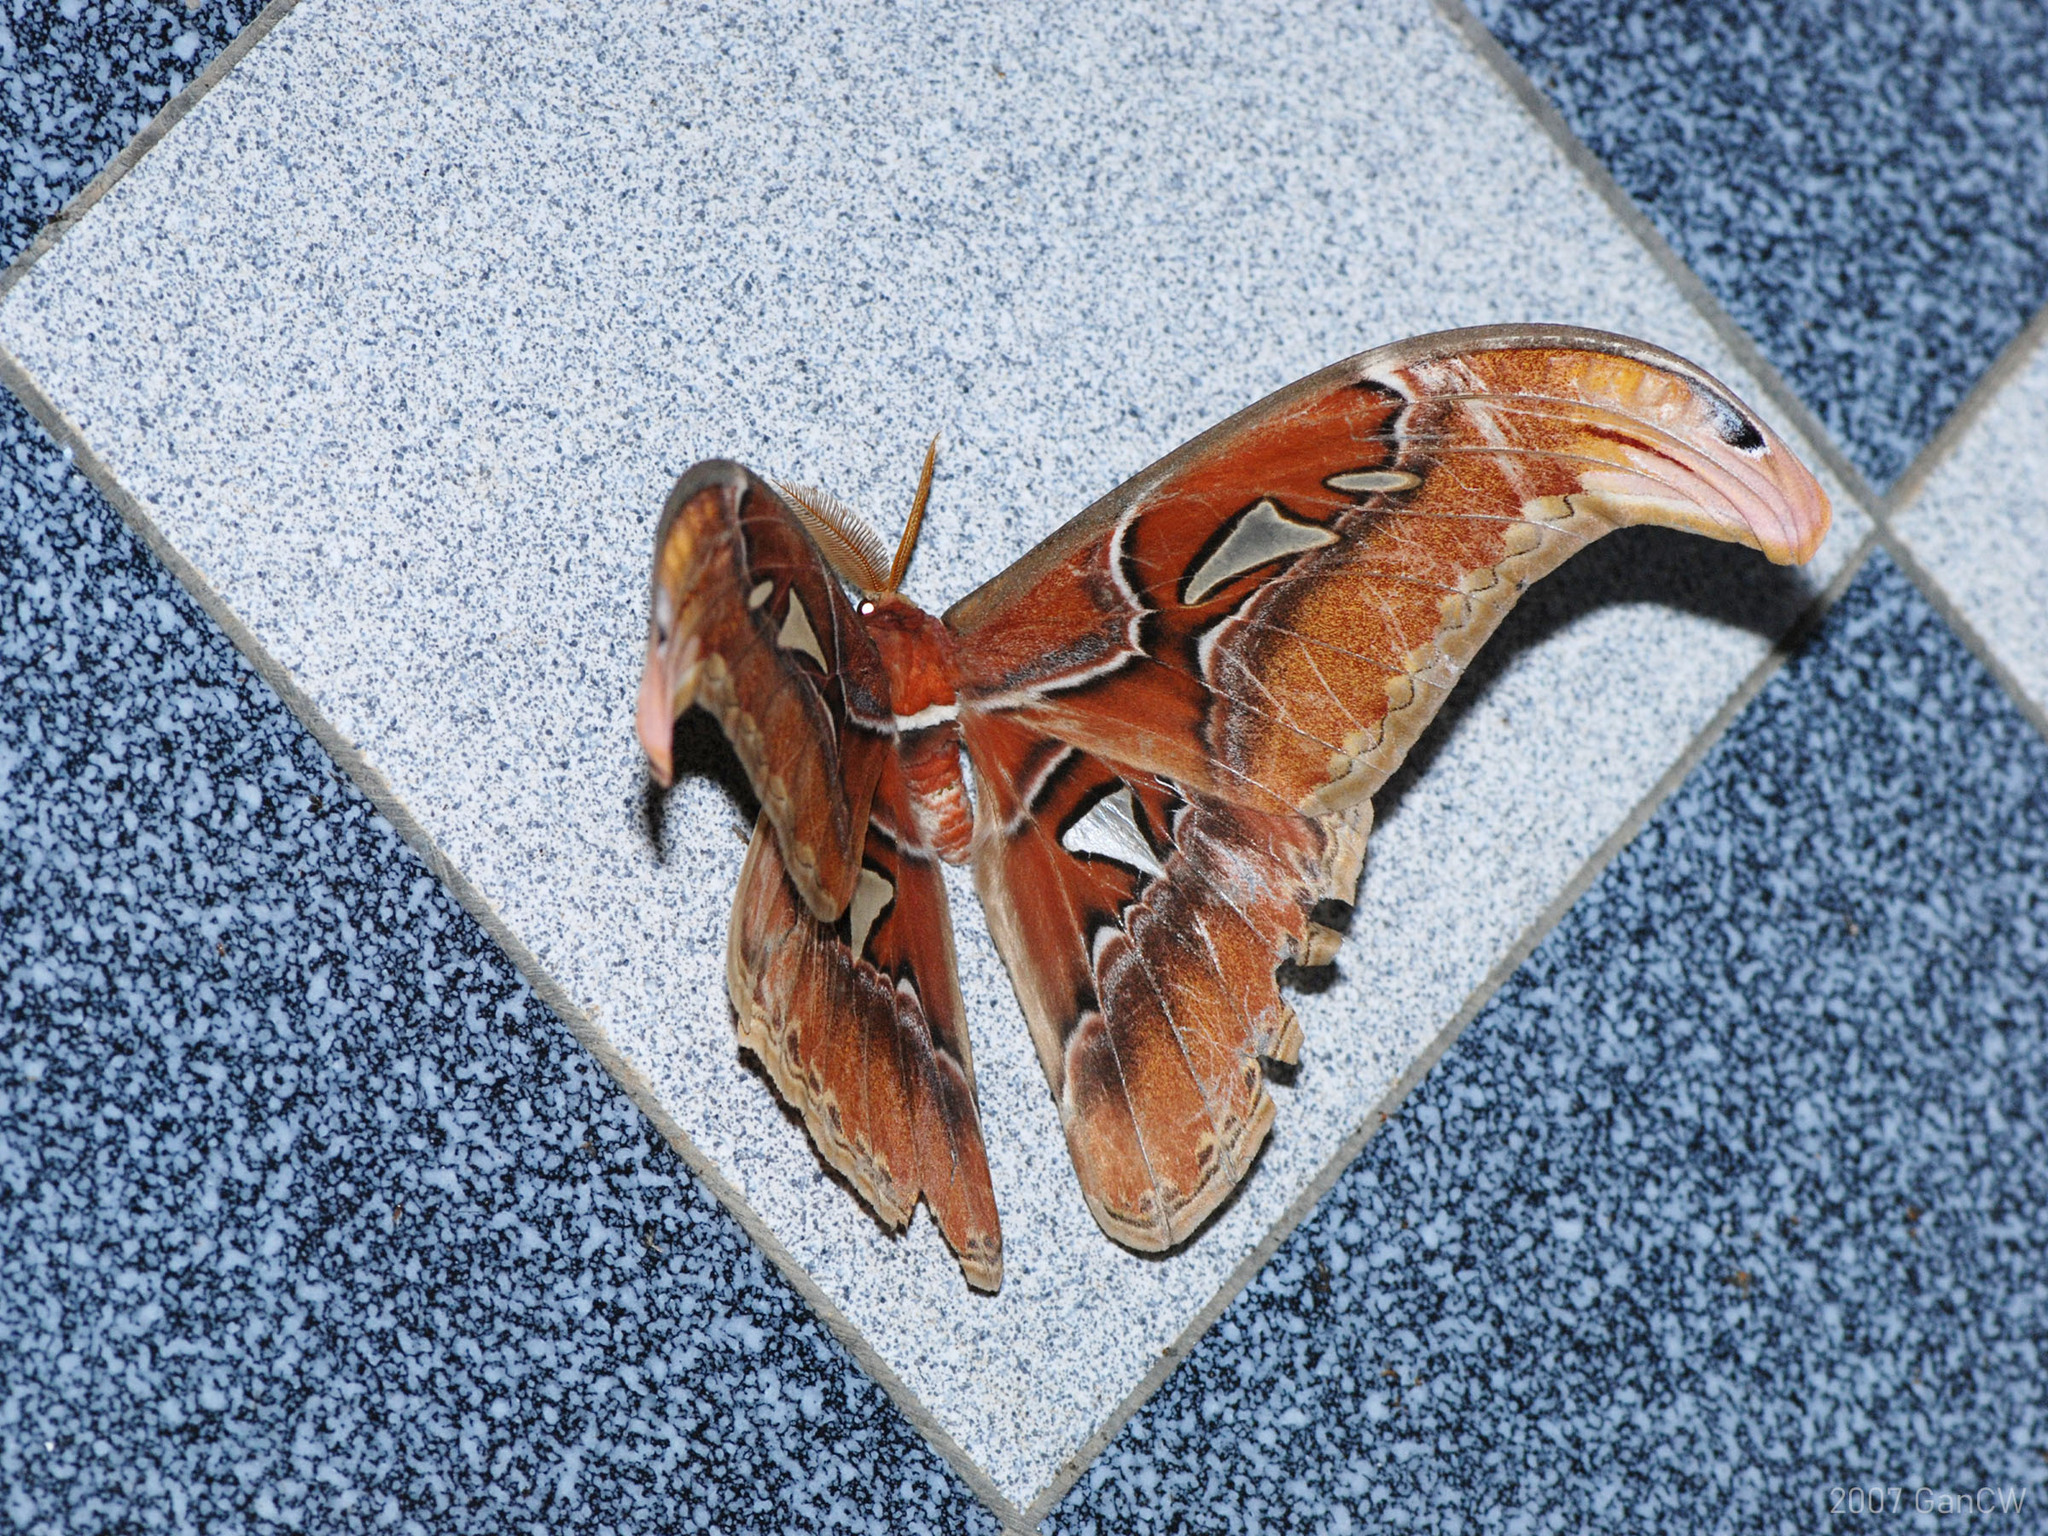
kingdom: Animalia
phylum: Arthropoda
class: Insecta
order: Lepidoptera
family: Saturniidae
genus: Attacus
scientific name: Attacus atlas
